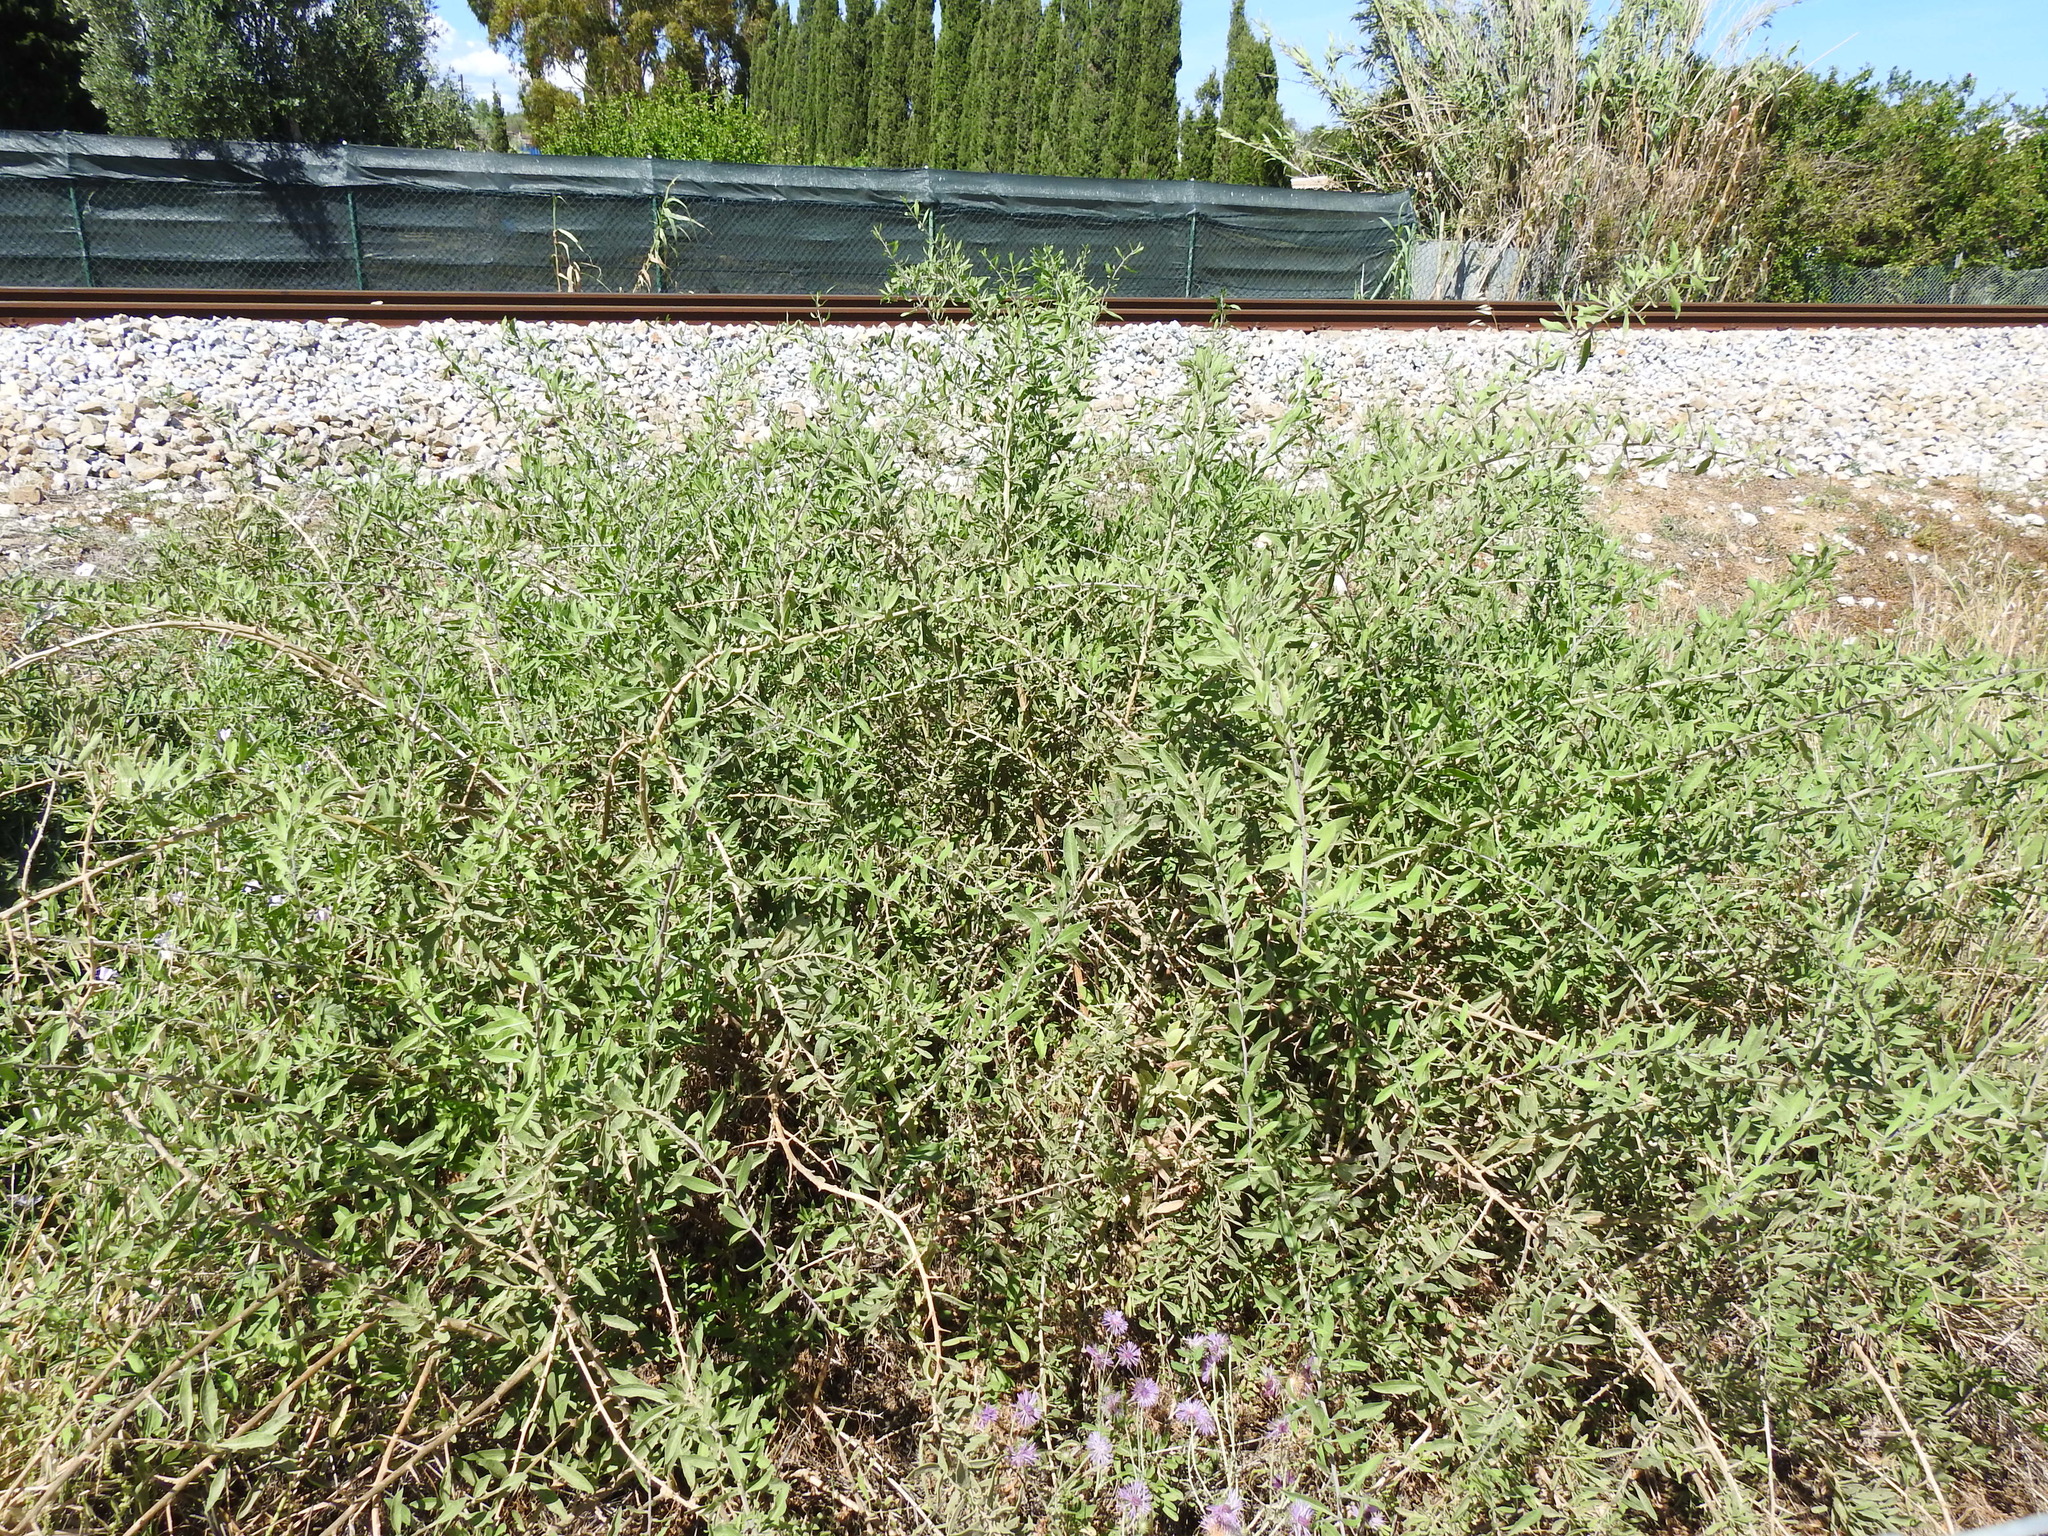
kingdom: Plantae
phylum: Tracheophyta
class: Magnoliopsida
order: Solanales
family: Solanaceae
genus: Lycium
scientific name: Lycium europaeum
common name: Boxthorn
